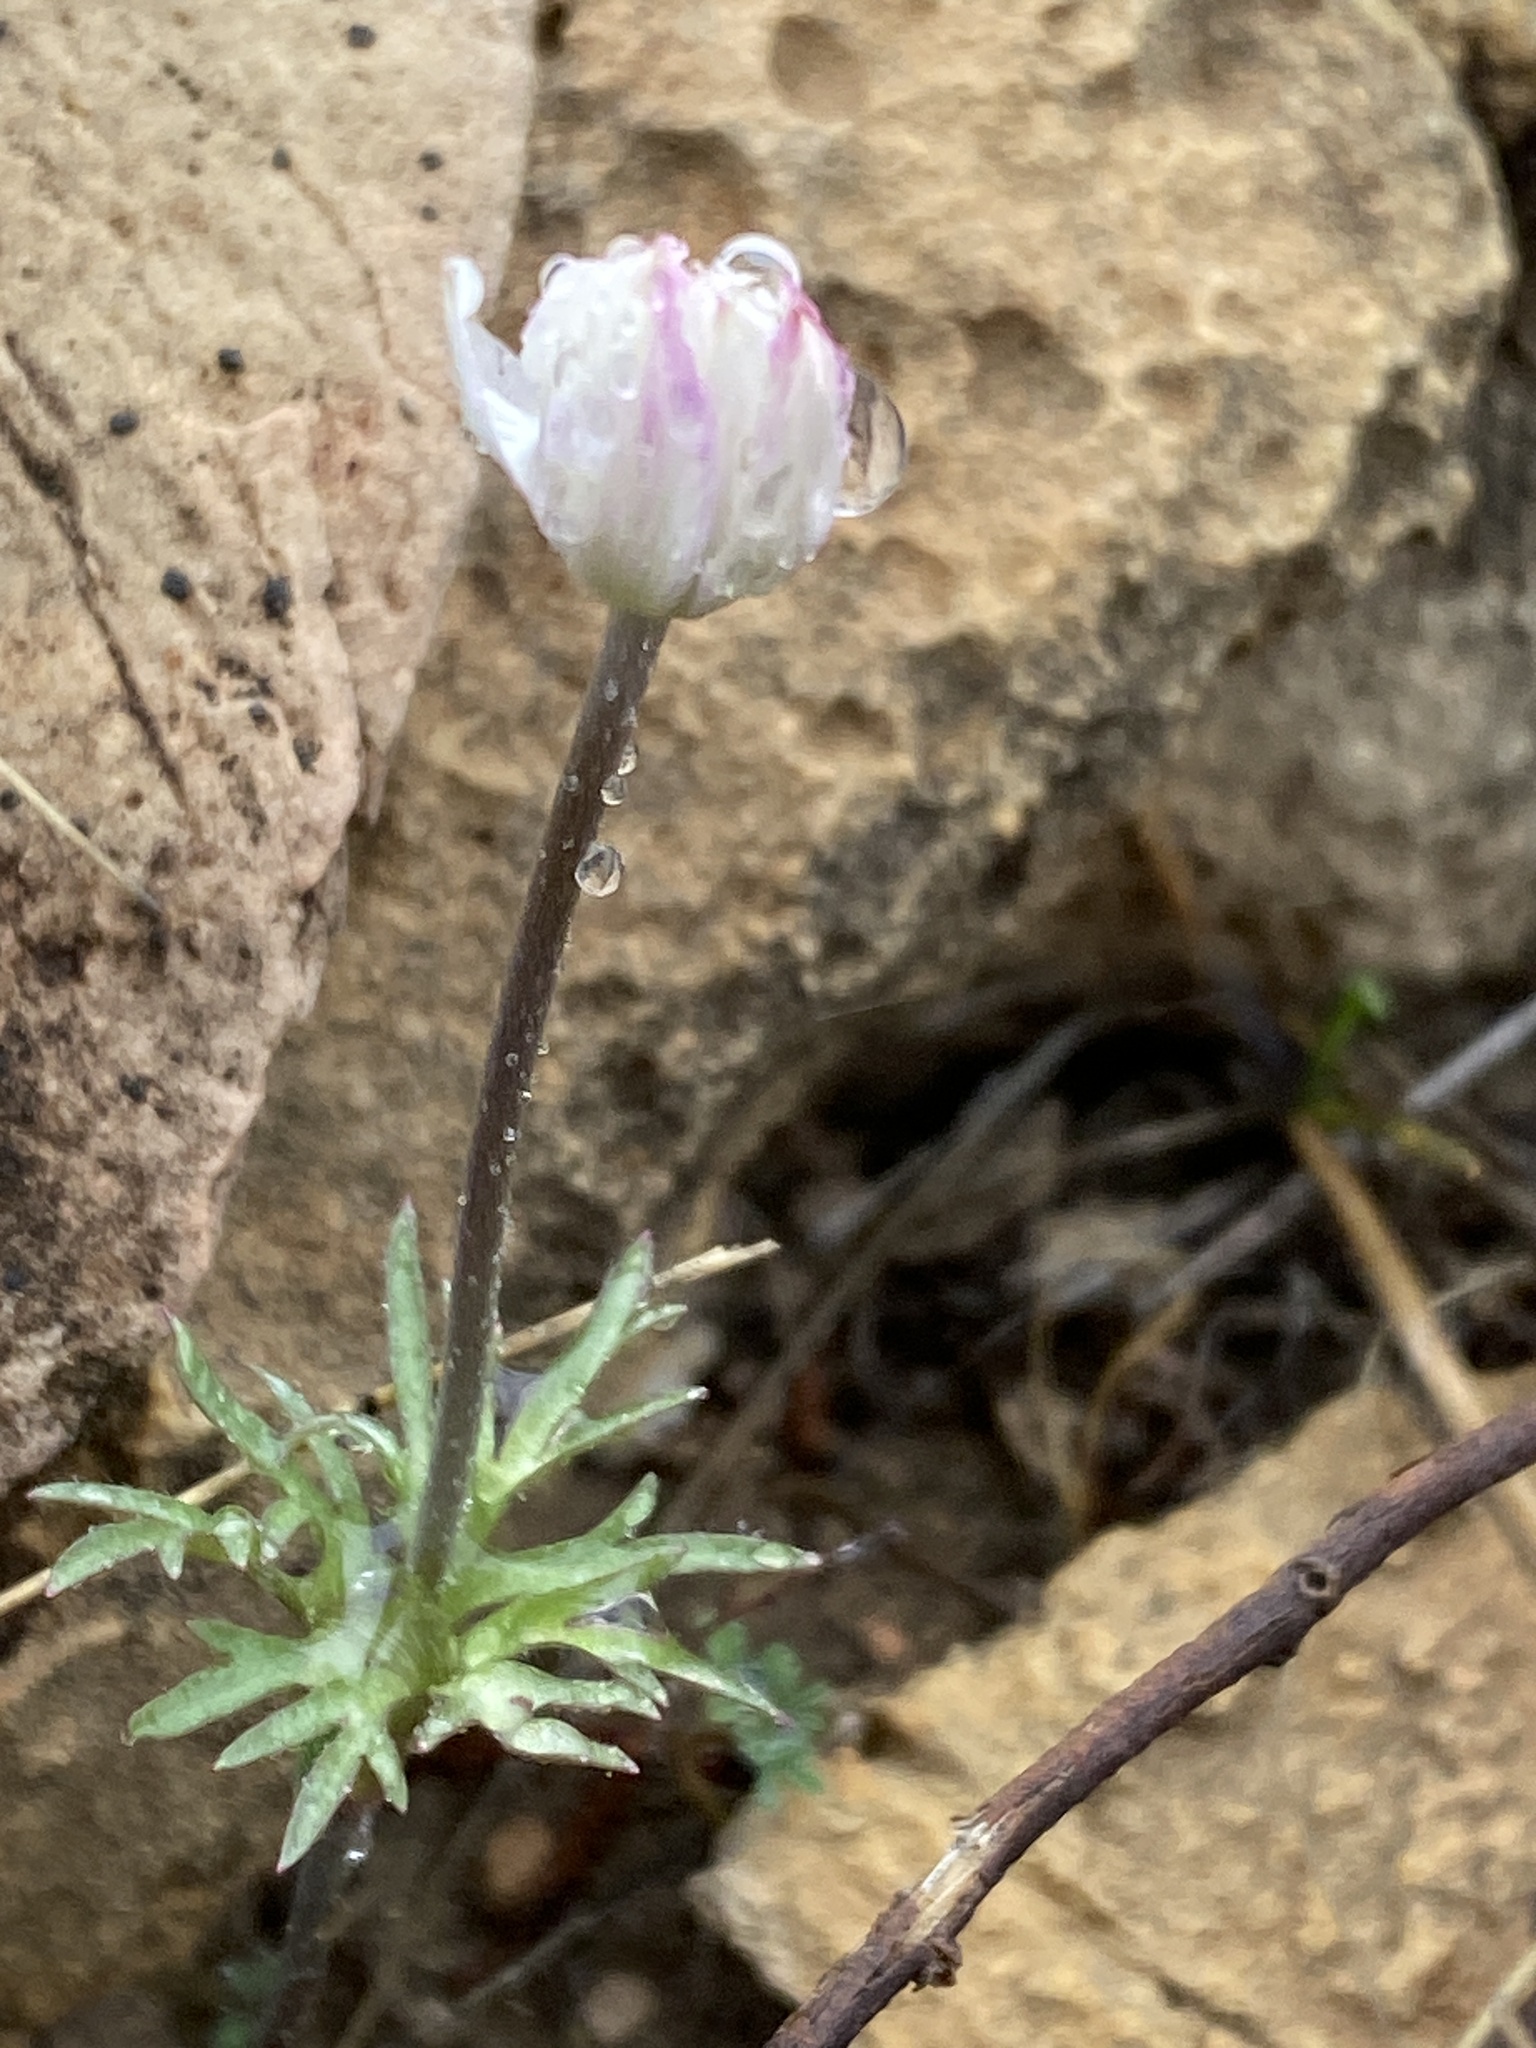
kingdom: Plantae
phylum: Tracheophyta
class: Magnoliopsida
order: Ranunculales
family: Ranunculaceae
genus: Anemone
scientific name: Anemone tuberosa
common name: Desert anemone
